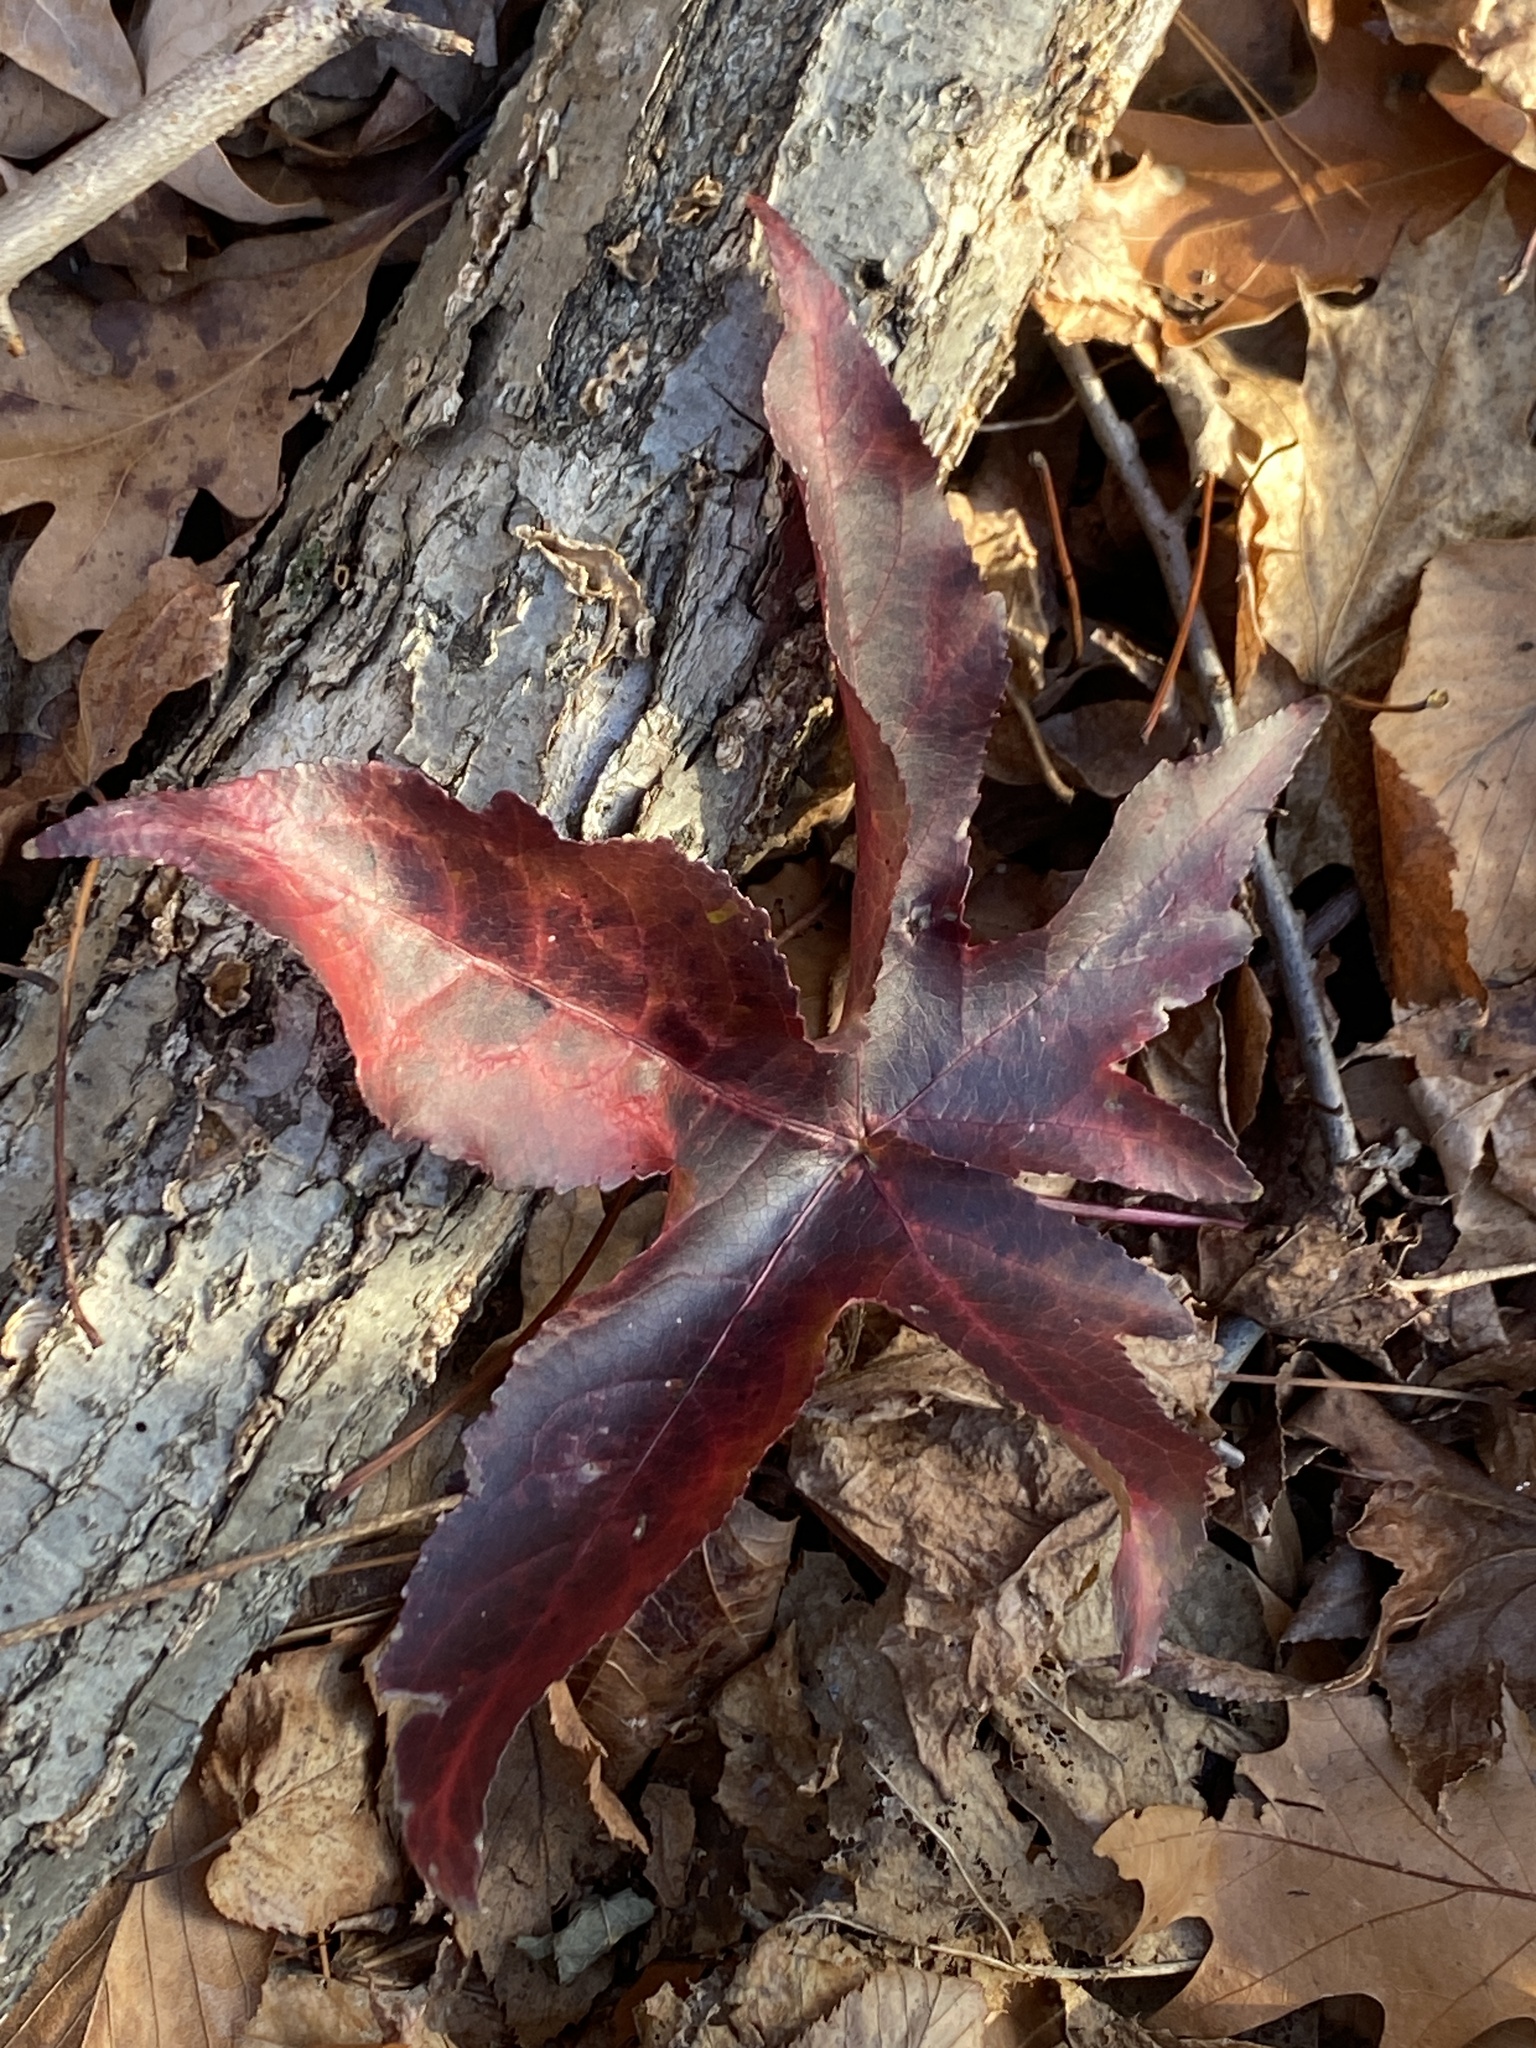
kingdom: Plantae
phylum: Tracheophyta
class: Magnoliopsida
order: Saxifragales
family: Altingiaceae
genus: Liquidambar
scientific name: Liquidambar styraciflua
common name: Sweet gum
